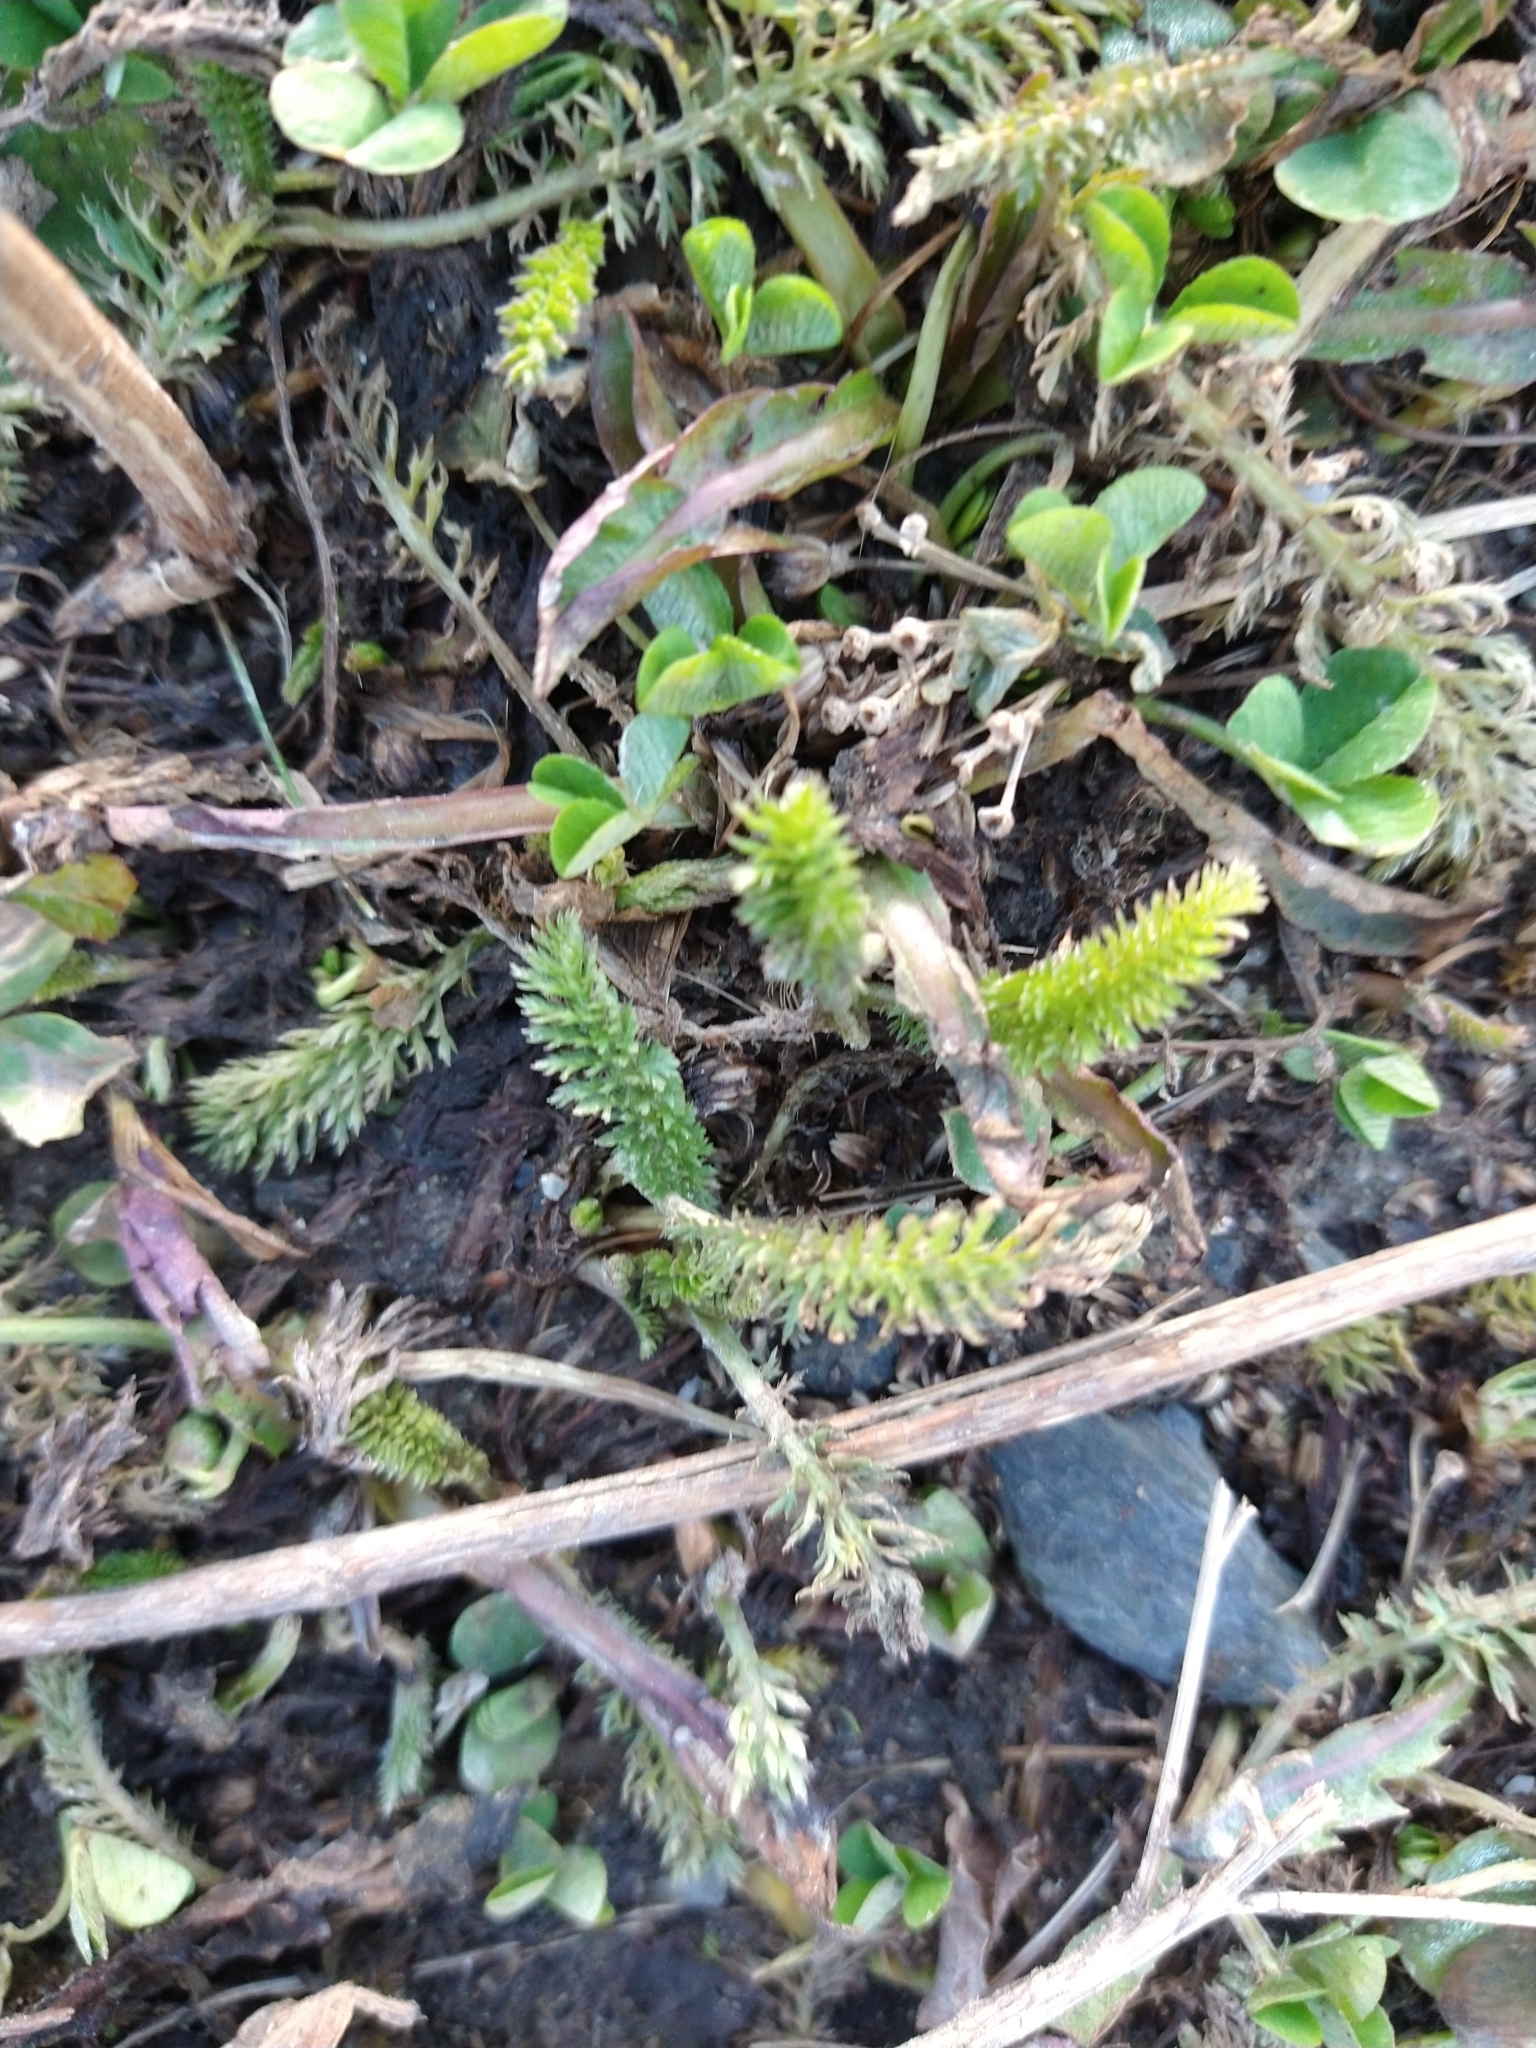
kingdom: Plantae
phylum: Tracheophyta
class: Magnoliopsida
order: Asterales
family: Asteraceae
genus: Achillea
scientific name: Achillea millefolium
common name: Yarrow
